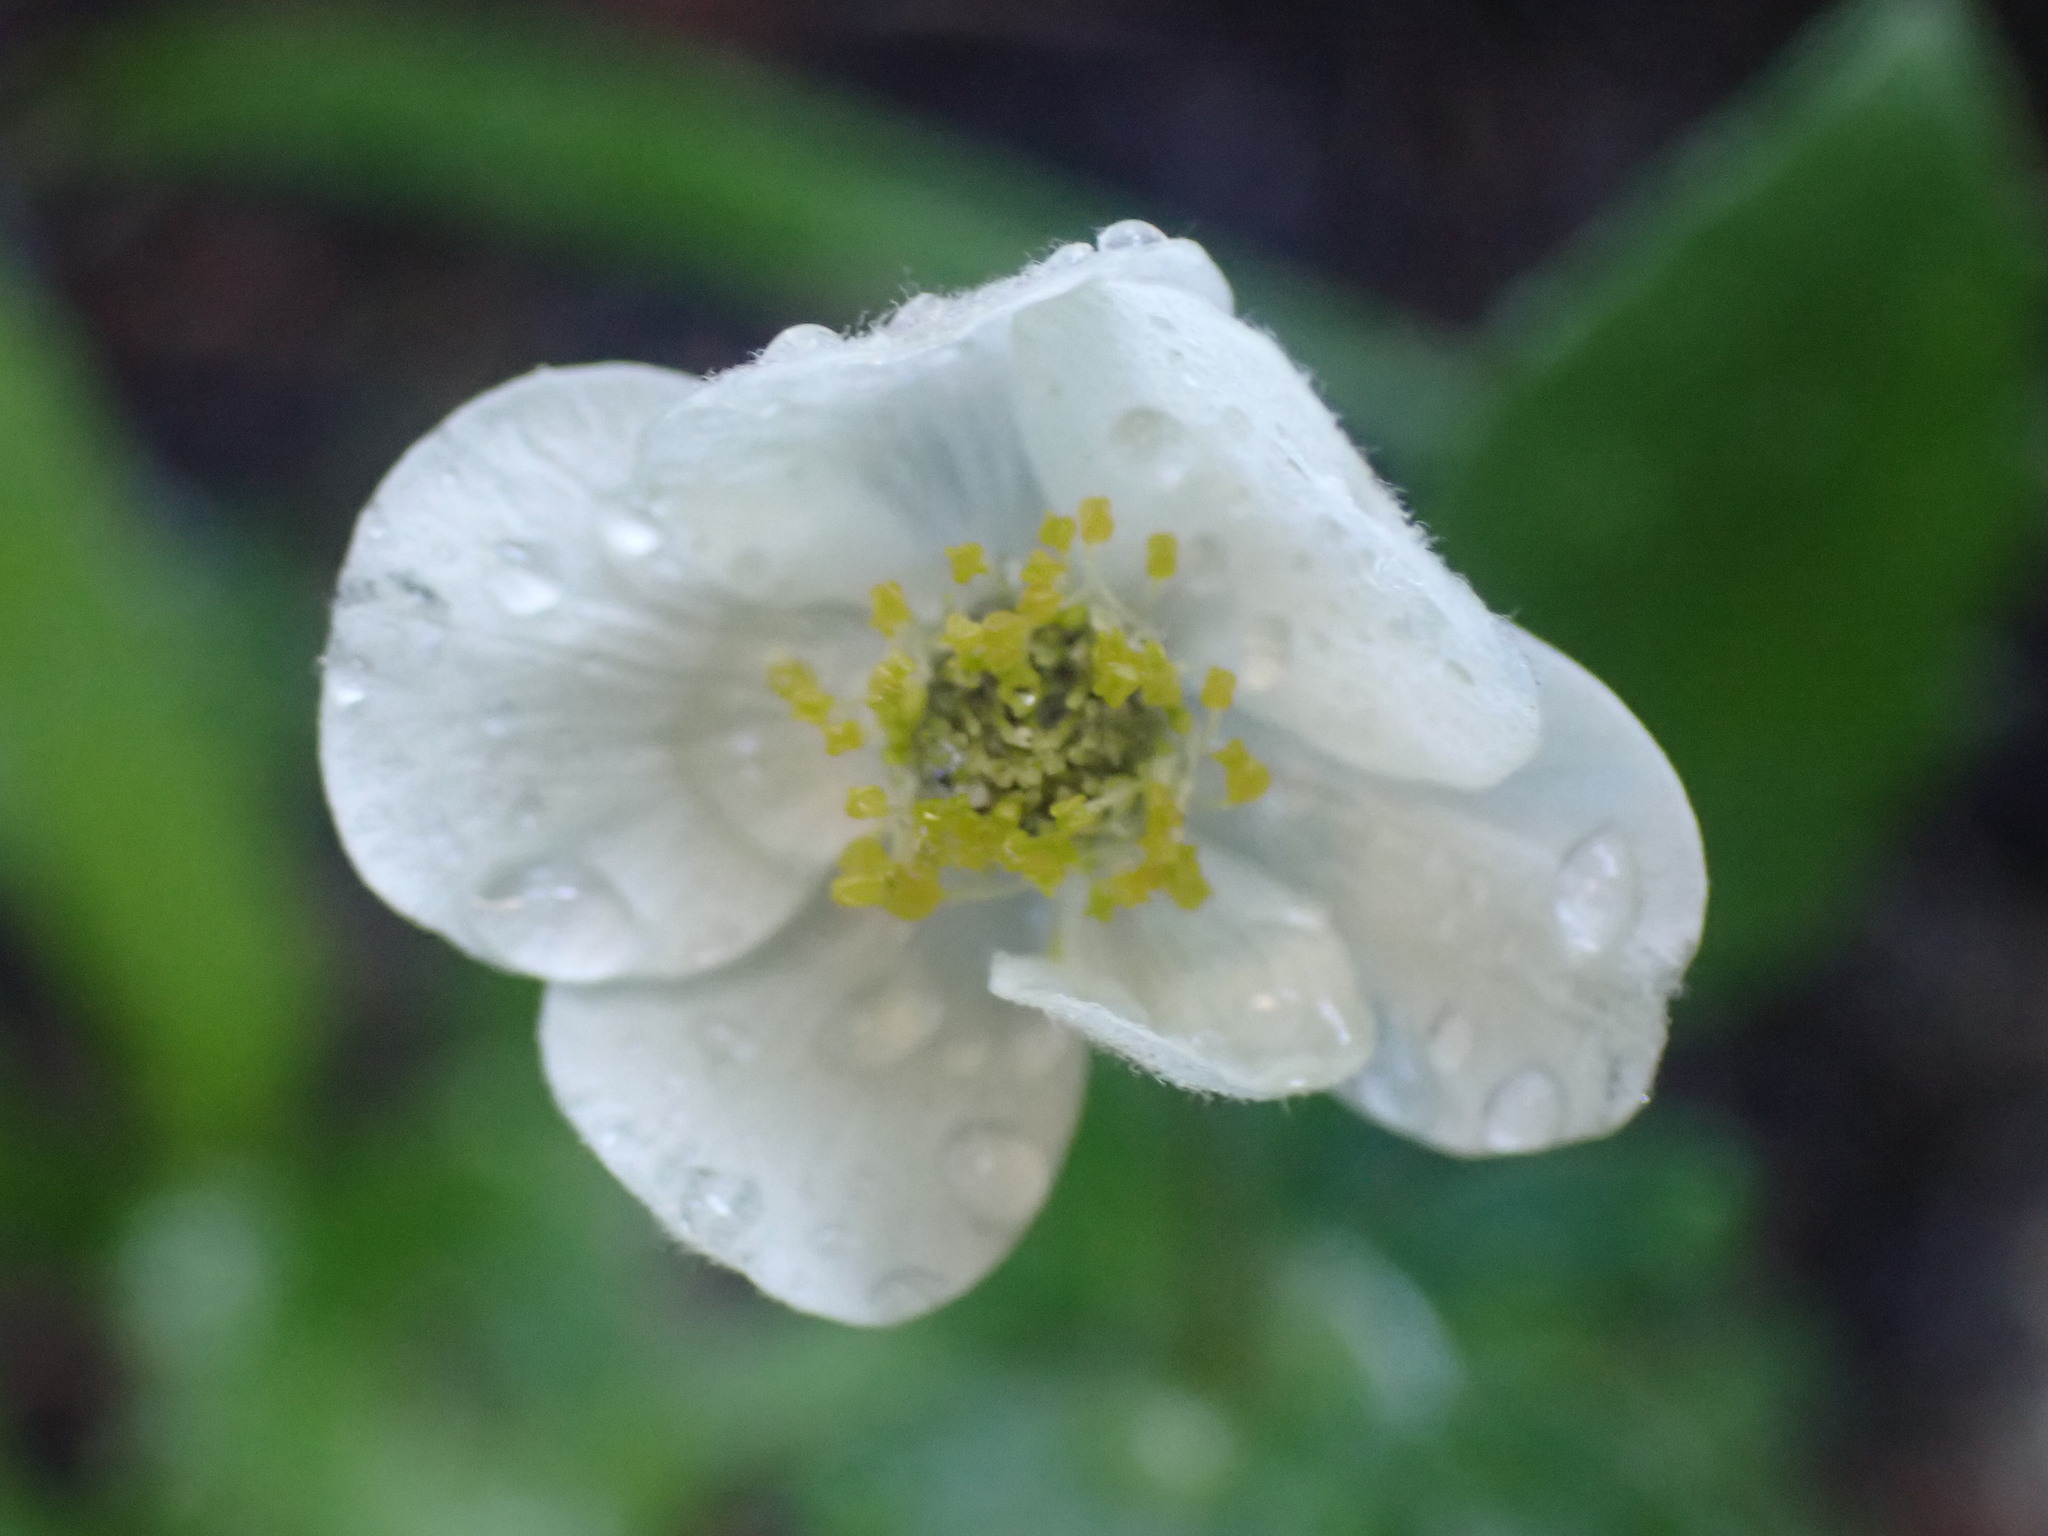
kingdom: Plantae
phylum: Tracheophyta
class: Magnoliopsida
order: Ranunculales
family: Ranunculaceae
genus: Anemone
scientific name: Anemone parviflora
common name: Northern anemone
